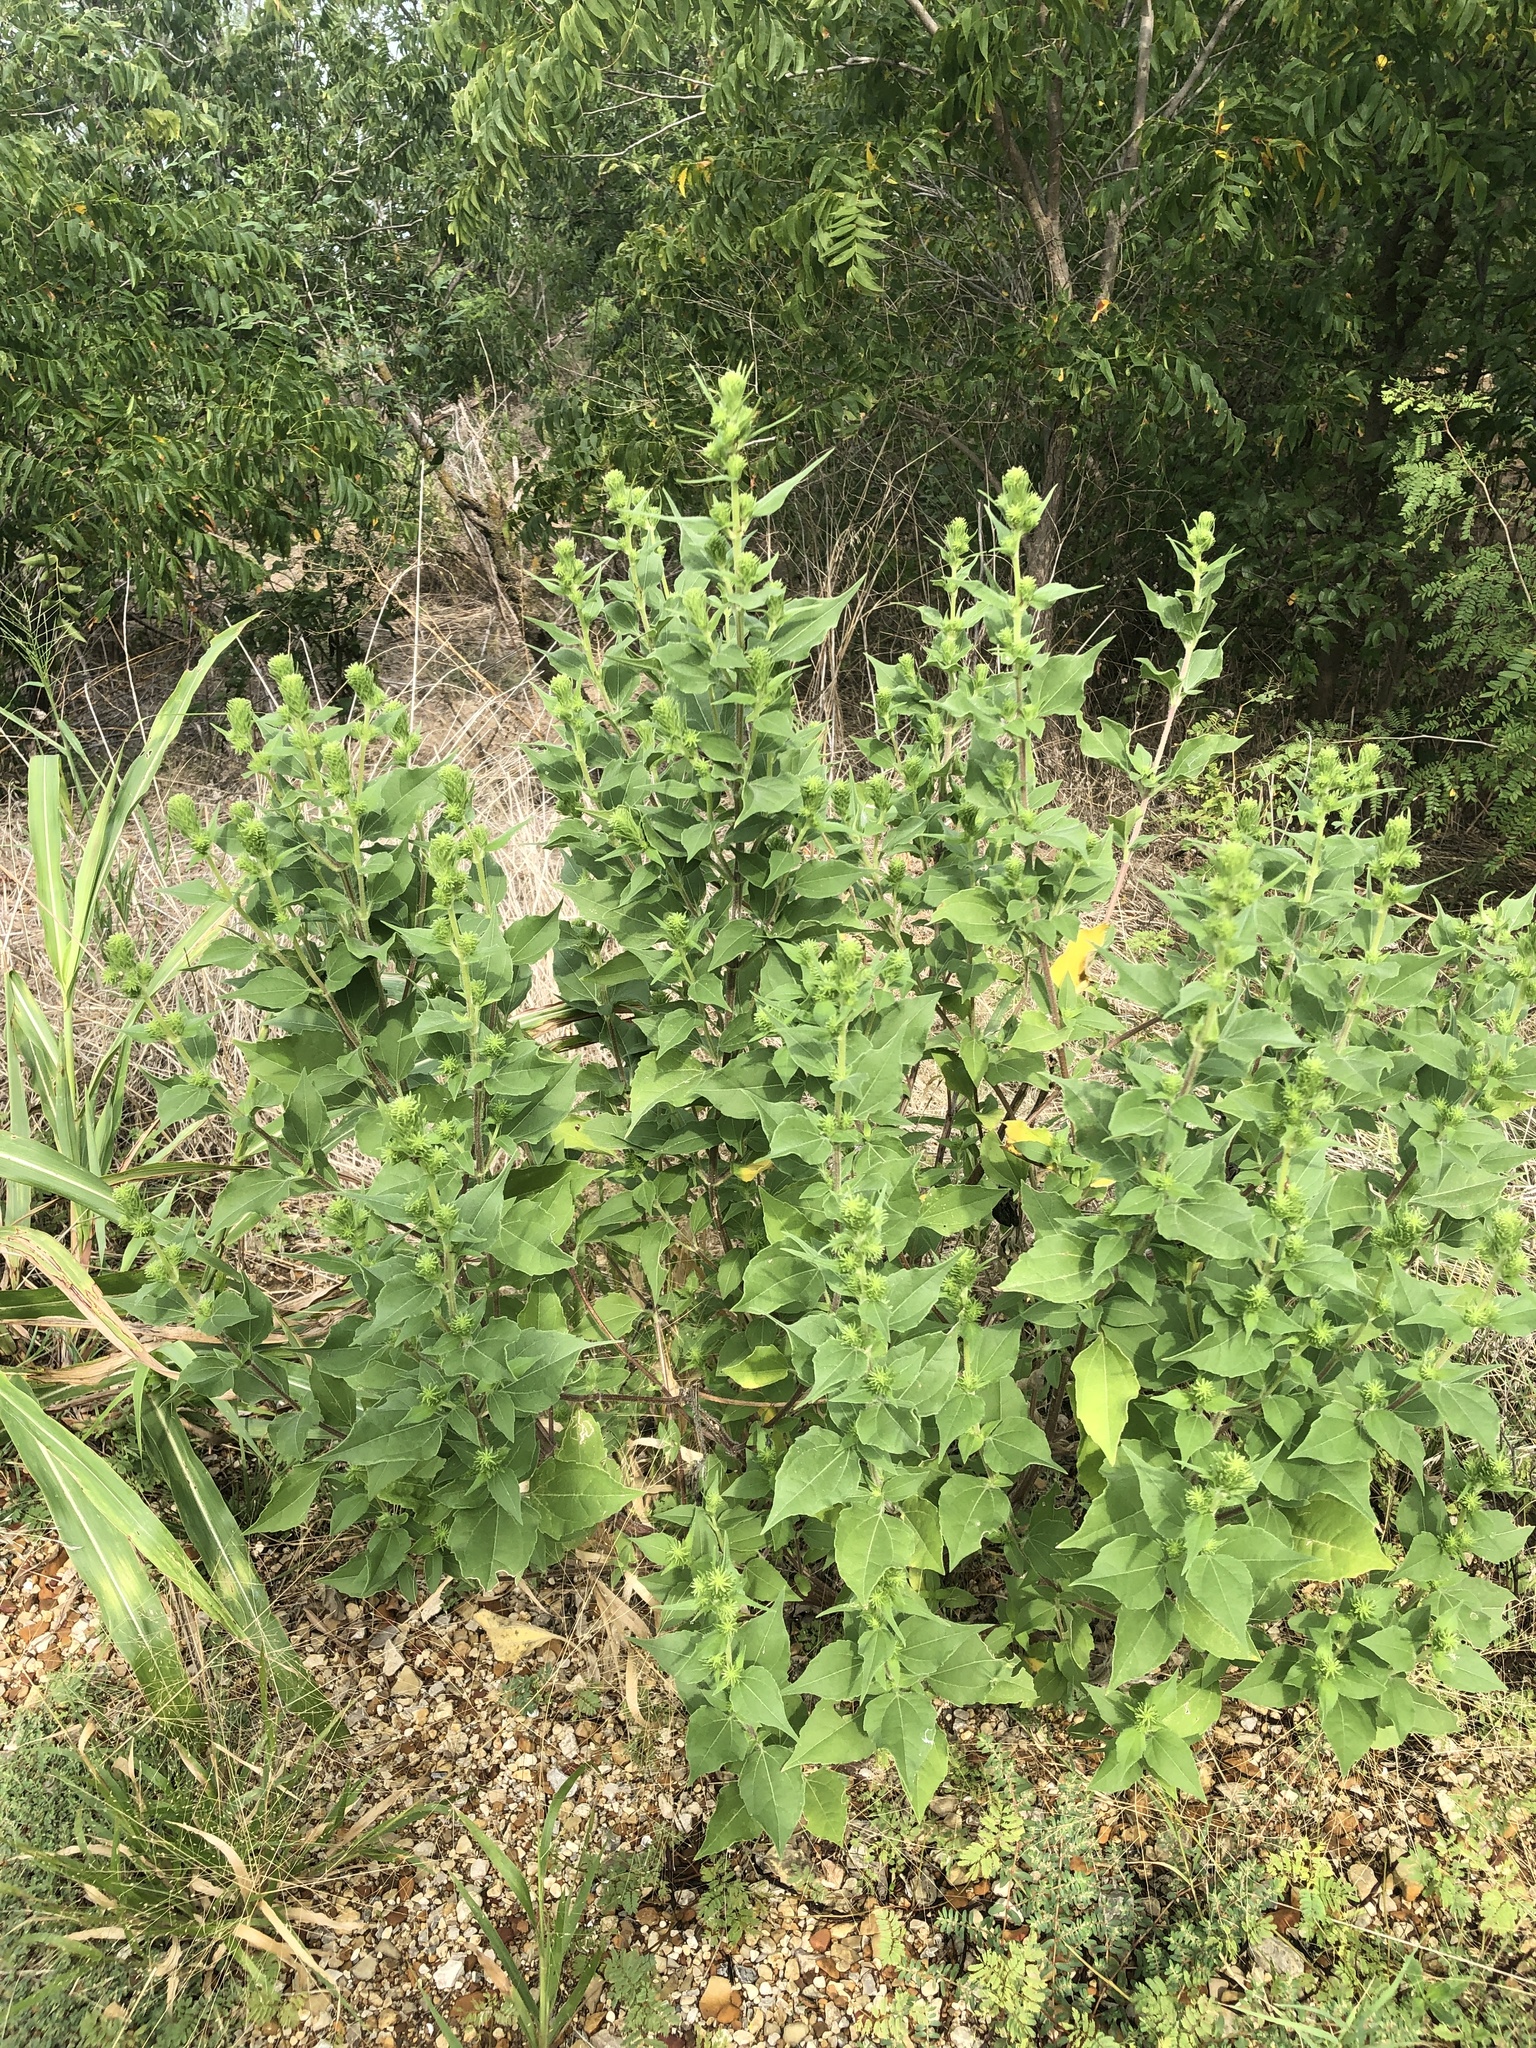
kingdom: Plantae
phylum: Tracheophyta
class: Magnoliopsida
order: Asterales
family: Asteraceae
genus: Iva
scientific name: Iva annua
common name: Marsh-elder
